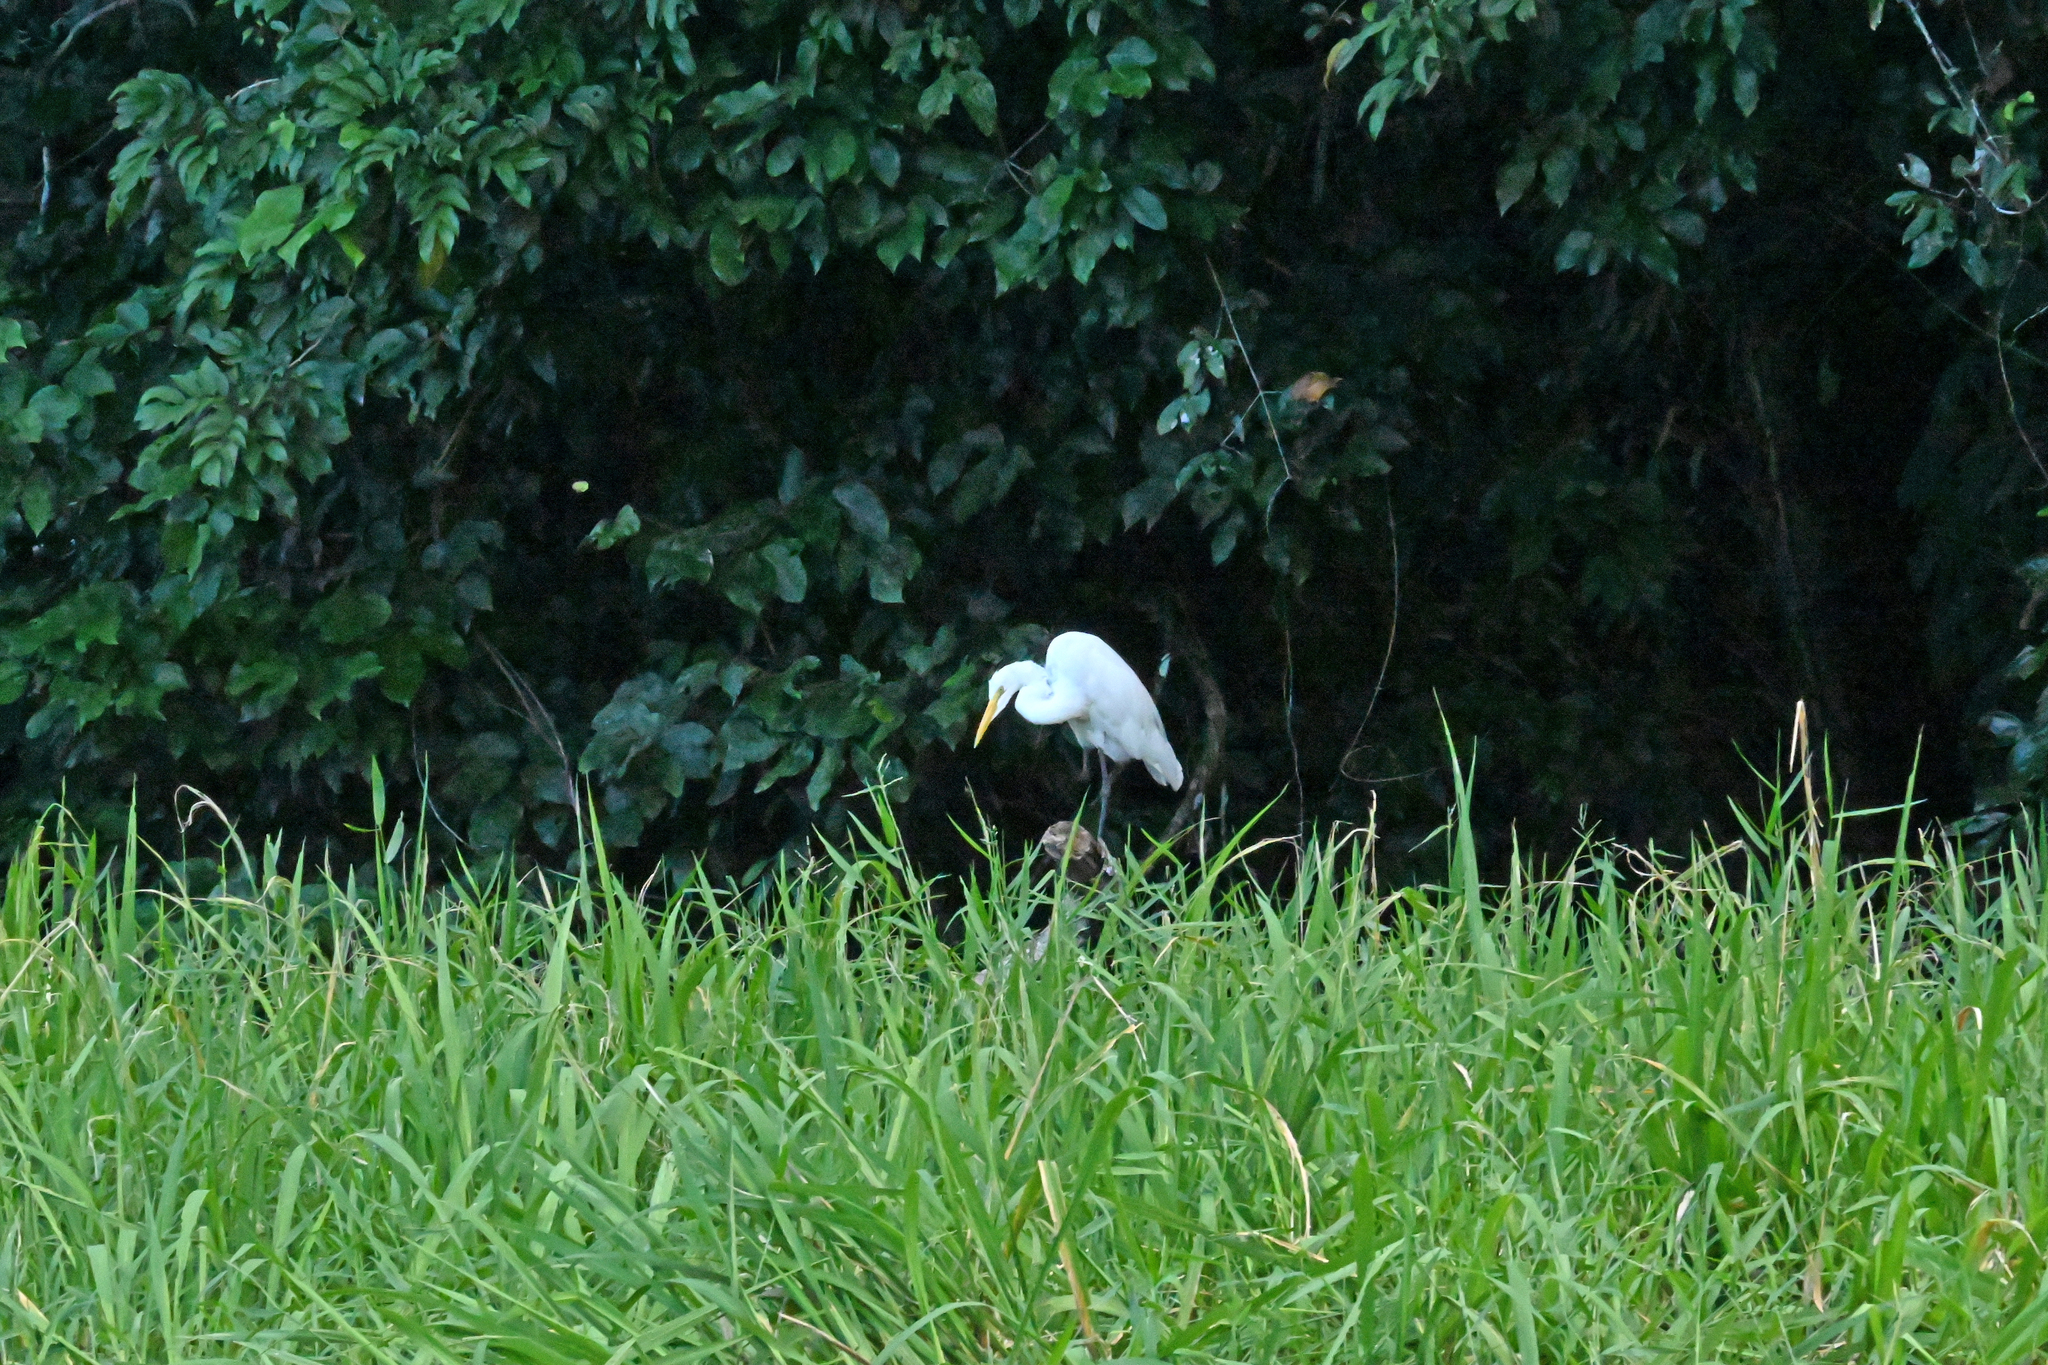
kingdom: Animalia
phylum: Chordata
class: Aves
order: Pelecaniformes
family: Ardeidae
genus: Ardea
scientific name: Ardea alba
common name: Great egret
